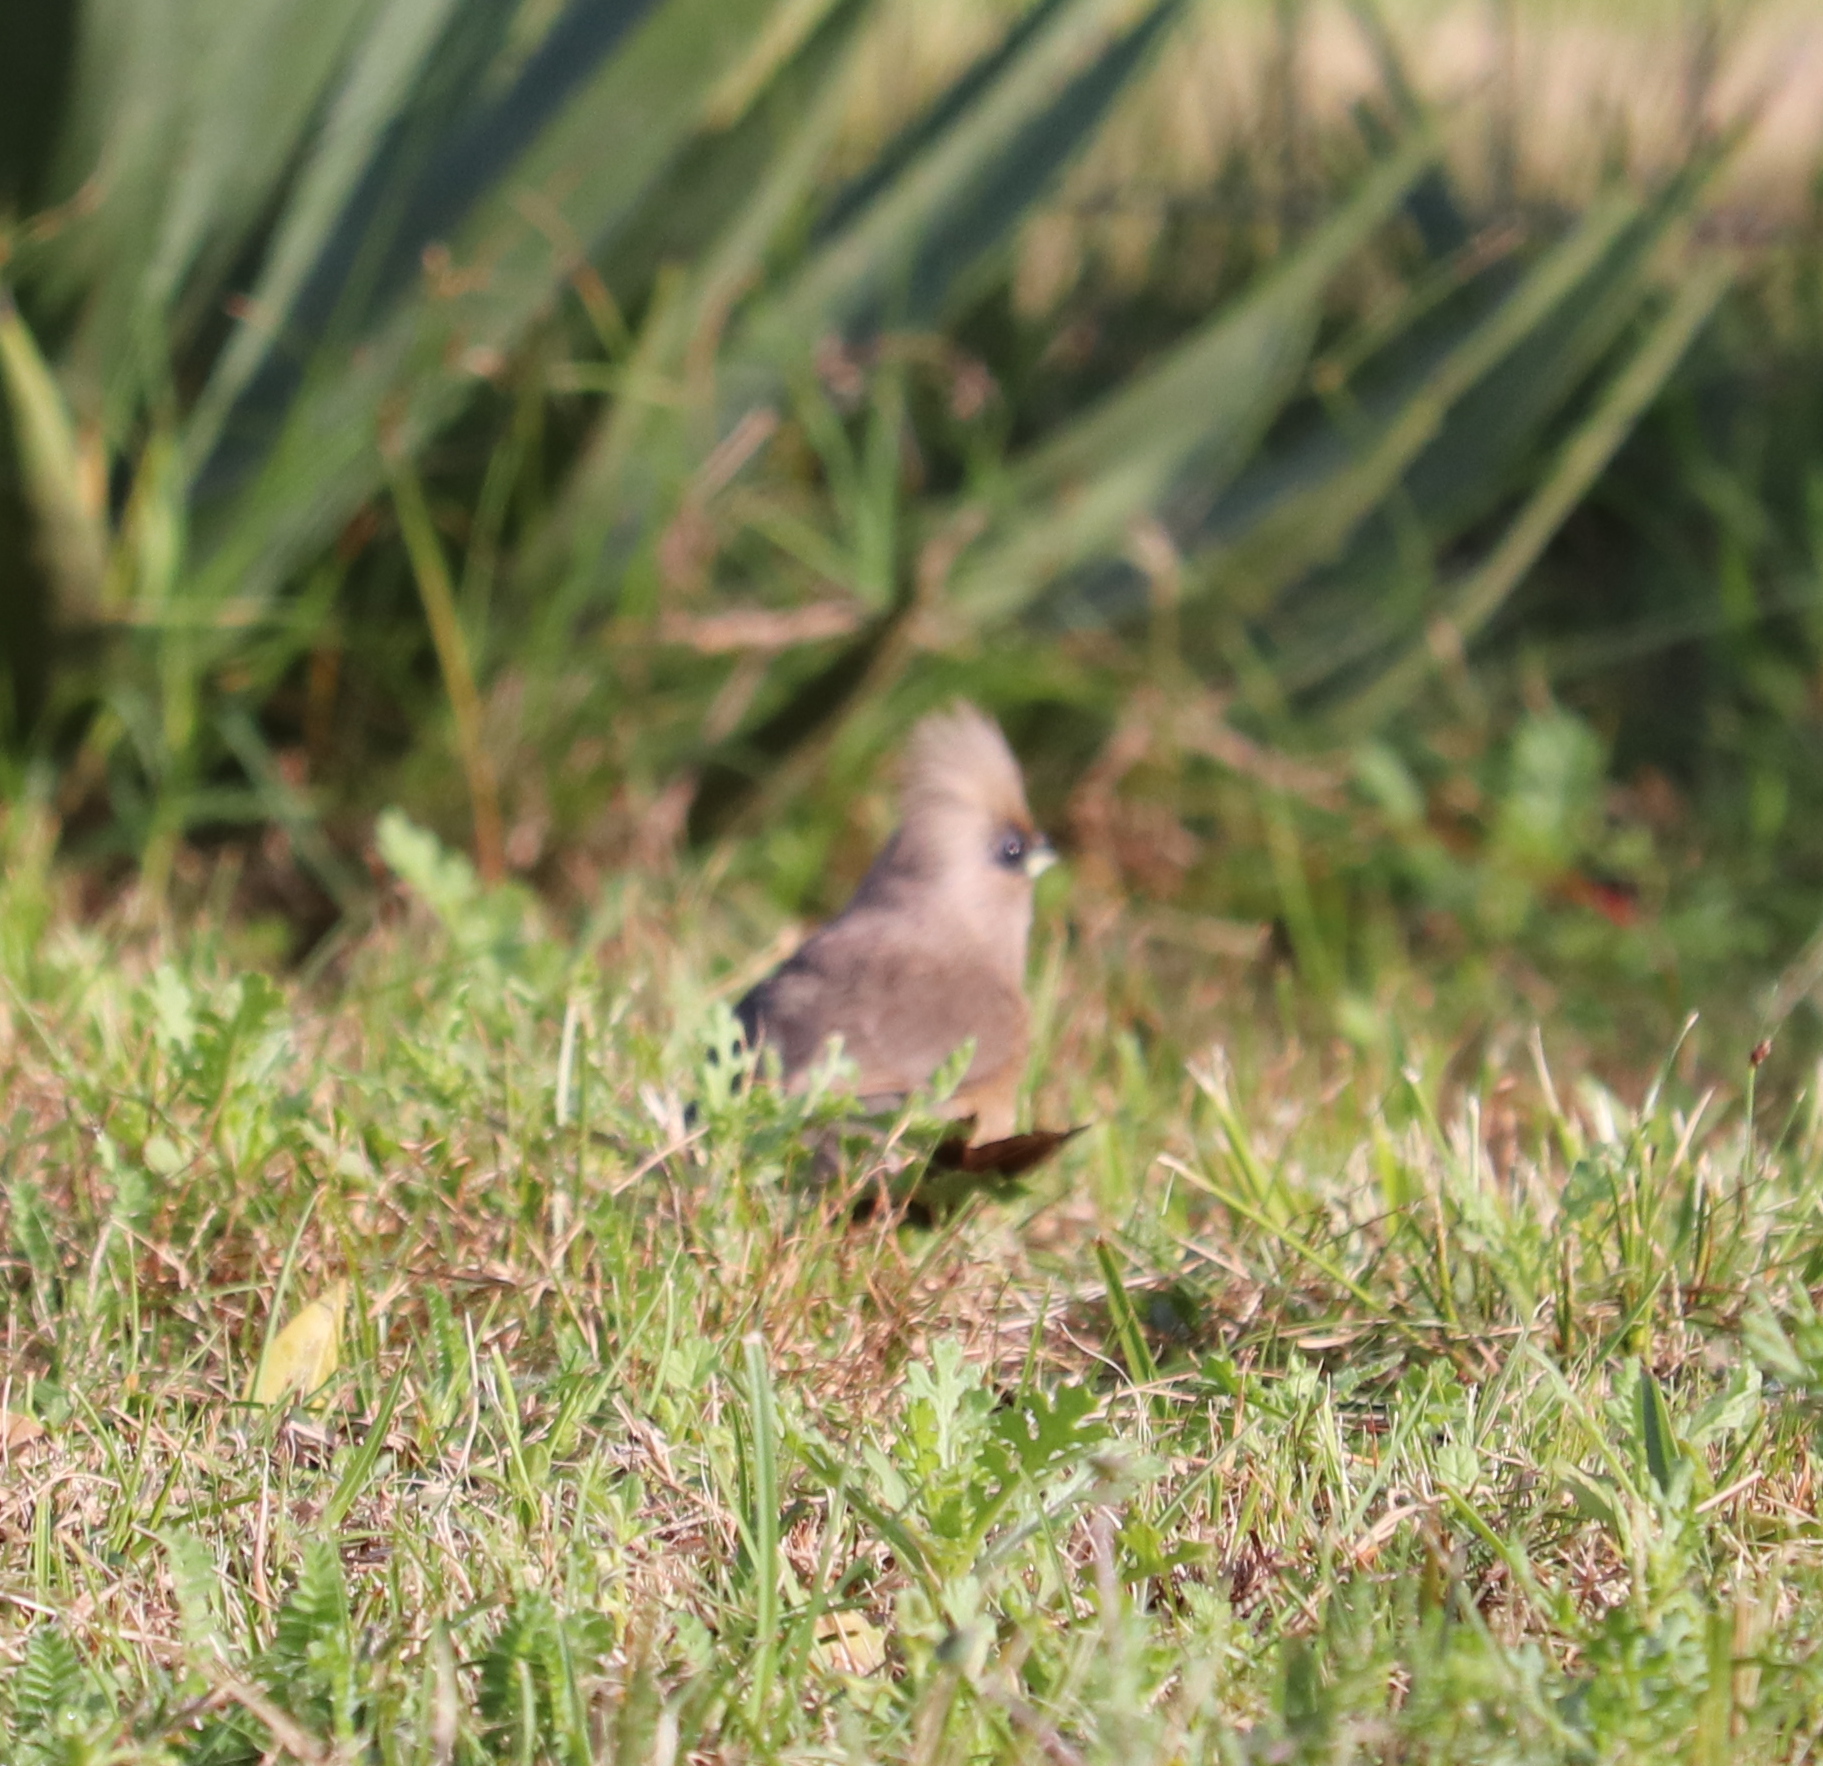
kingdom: Animalia
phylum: Chordata
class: Aves
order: Coliiformes
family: Coliidae
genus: Colius
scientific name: Colius striatus
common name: Speckled mousebird
